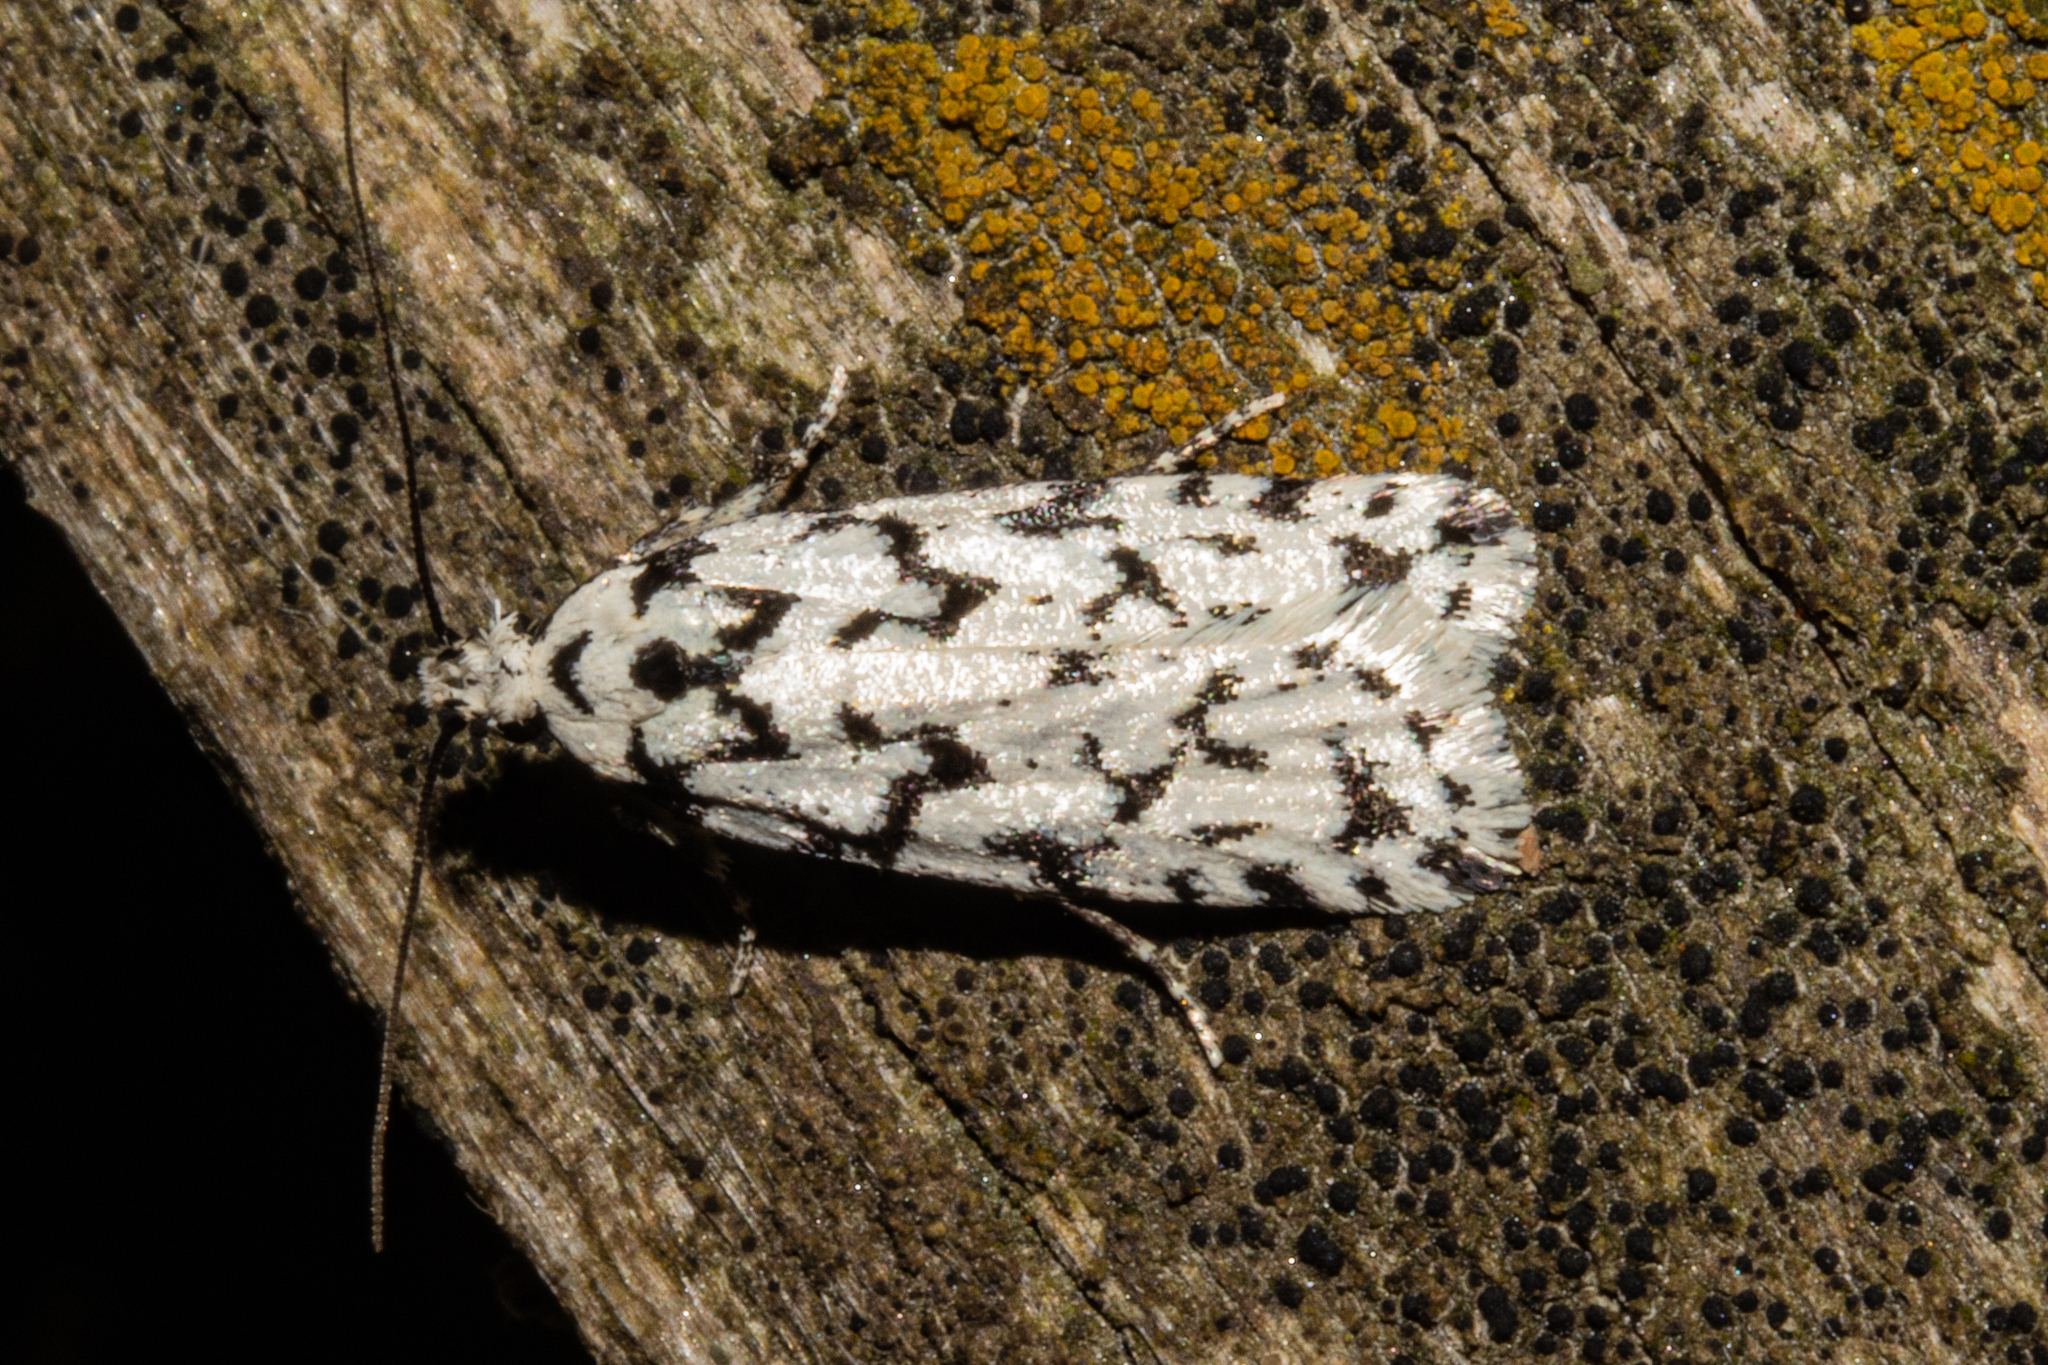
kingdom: Animalia
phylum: Arthropoda
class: Insecta
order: Lepidoptera
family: Oecophoridae
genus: Izatha
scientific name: Izatha katadiktya
